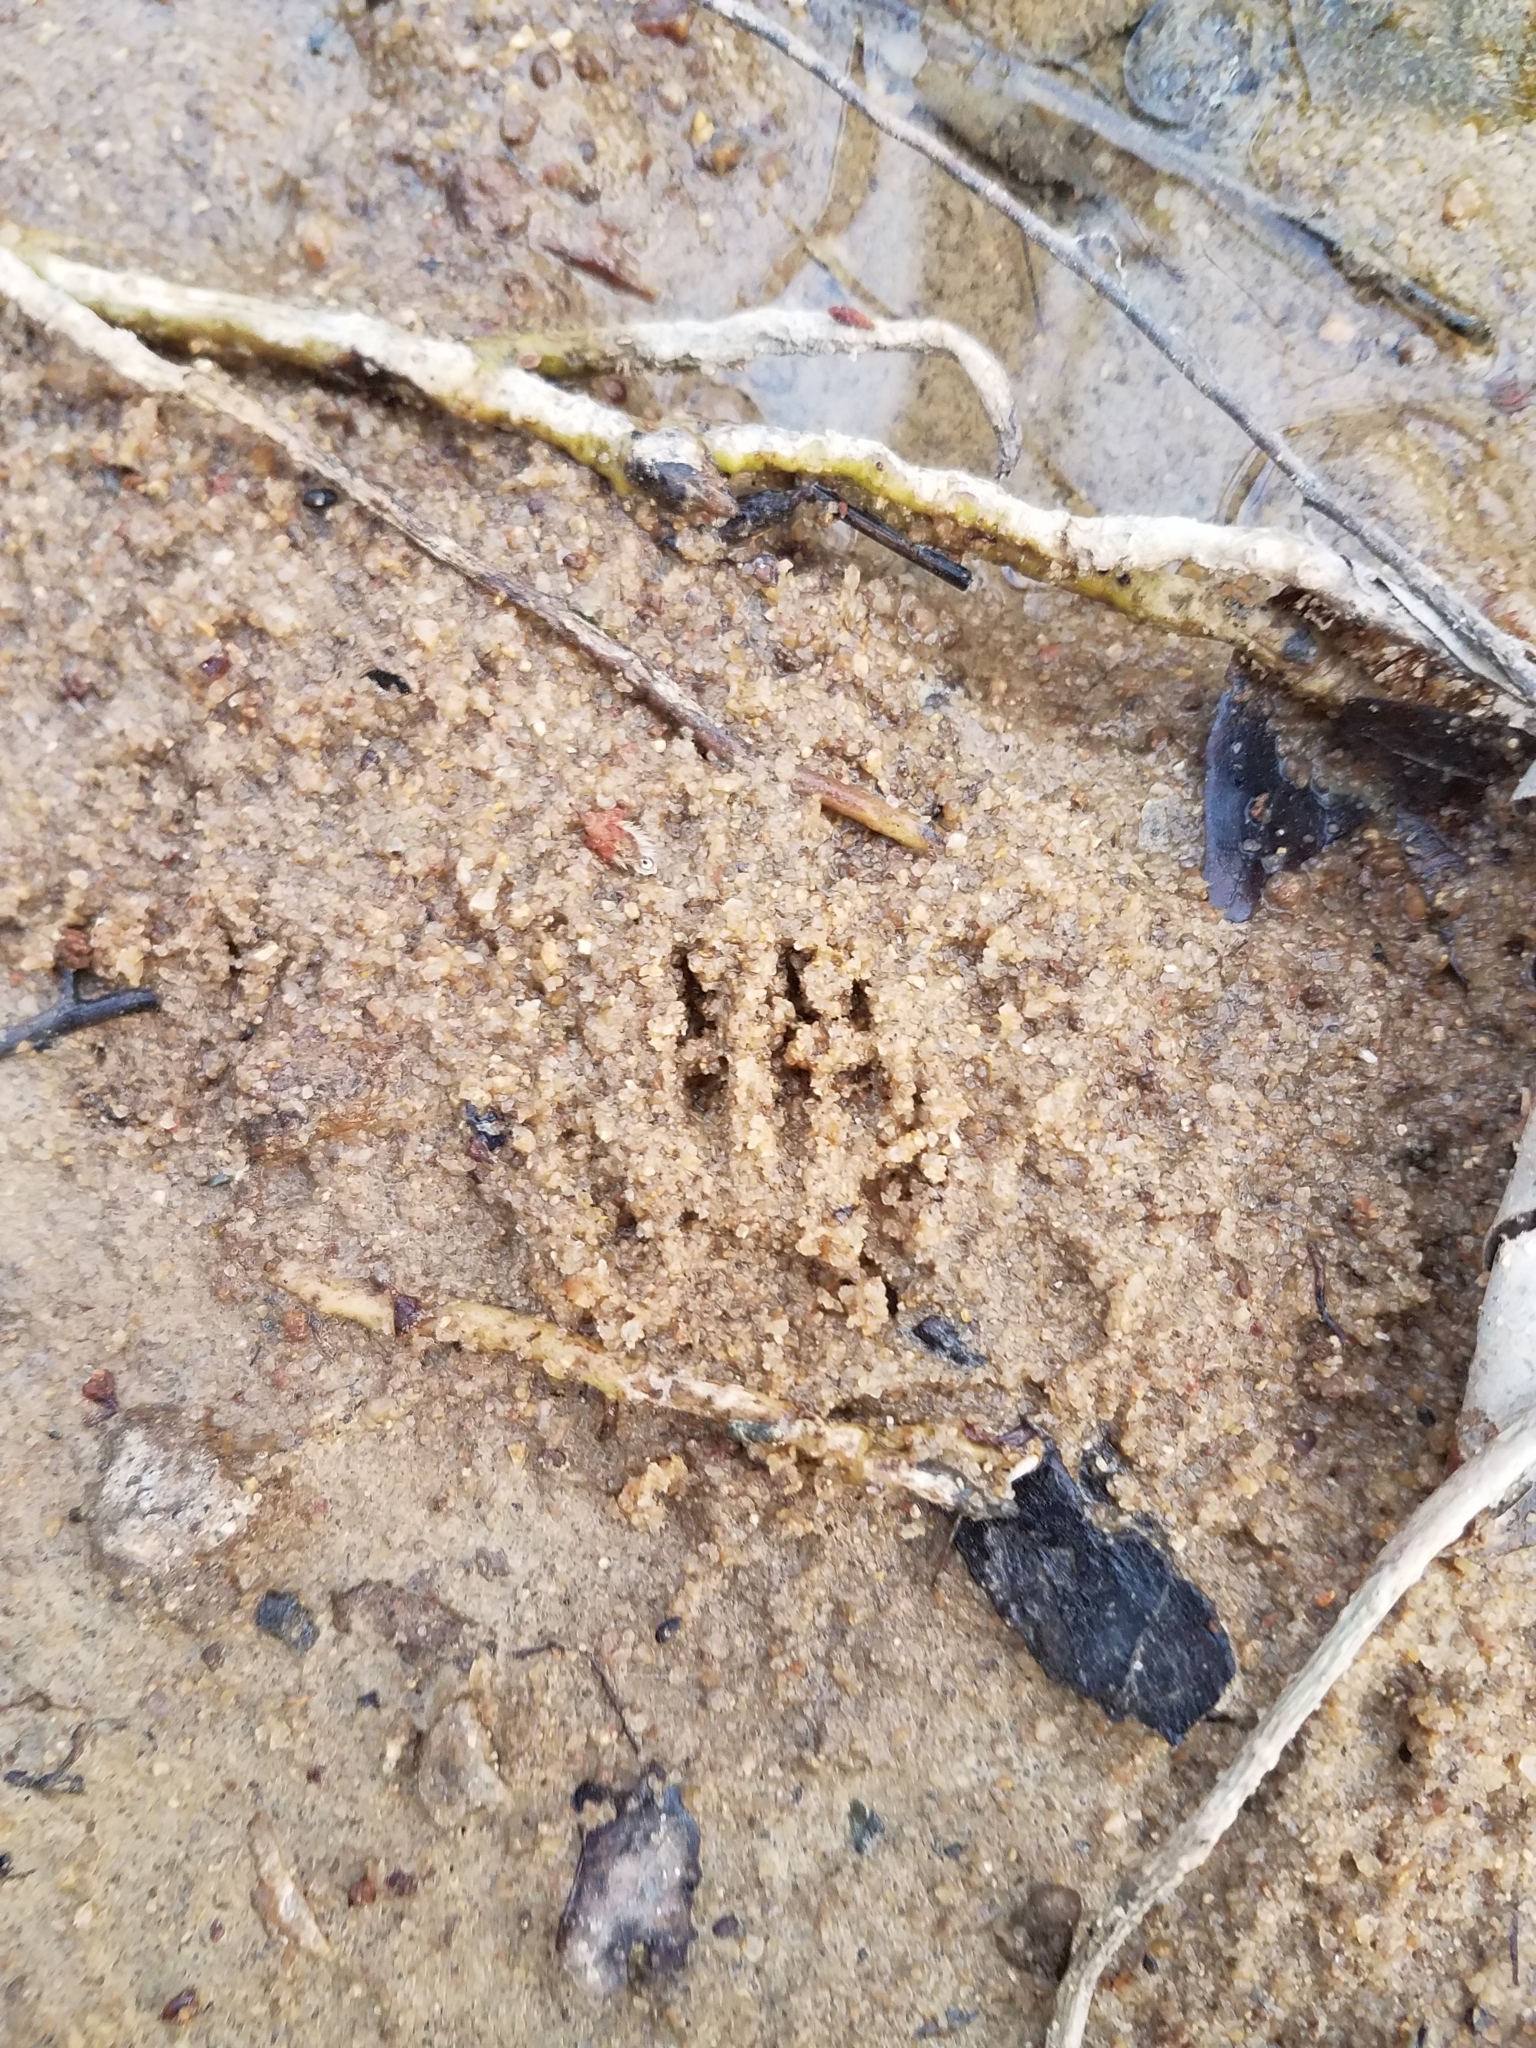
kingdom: Animalia
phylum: Chordata
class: Mammalia
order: Carnivora
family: Procyonidae
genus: Procyon
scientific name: Procyon lotor
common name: Raccoon
